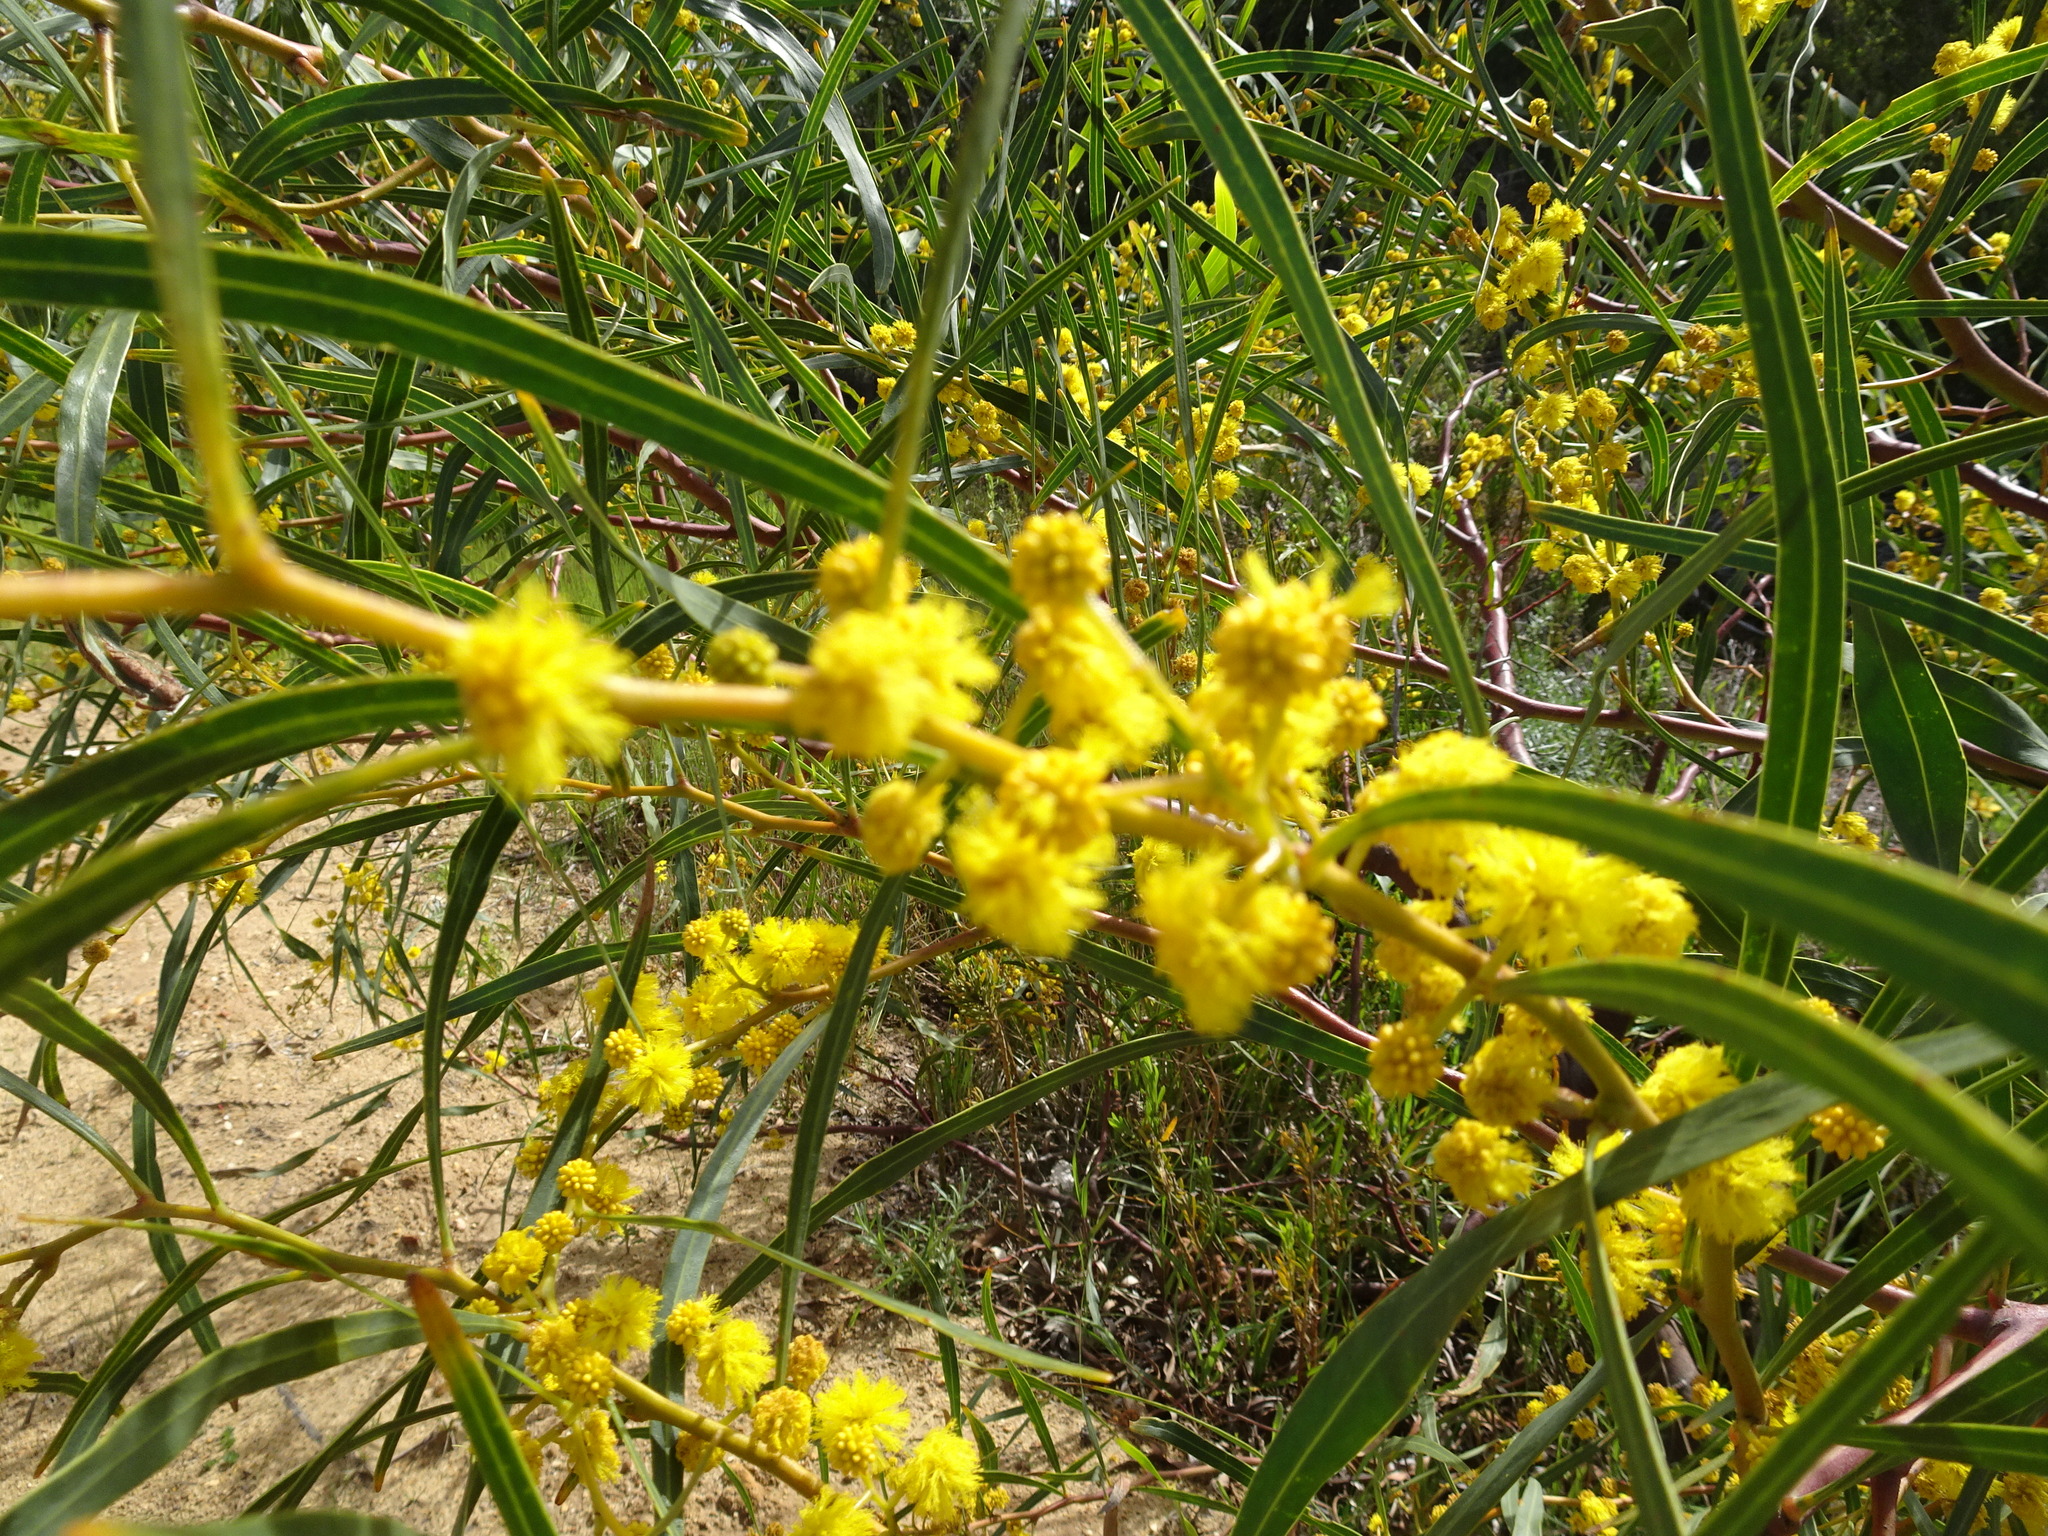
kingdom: Plantae
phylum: Tracheophyta
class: Magnoliopsida
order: Fabales
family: Fabaceae
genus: Acacia
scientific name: Acacia saligna
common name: Orange wattle
